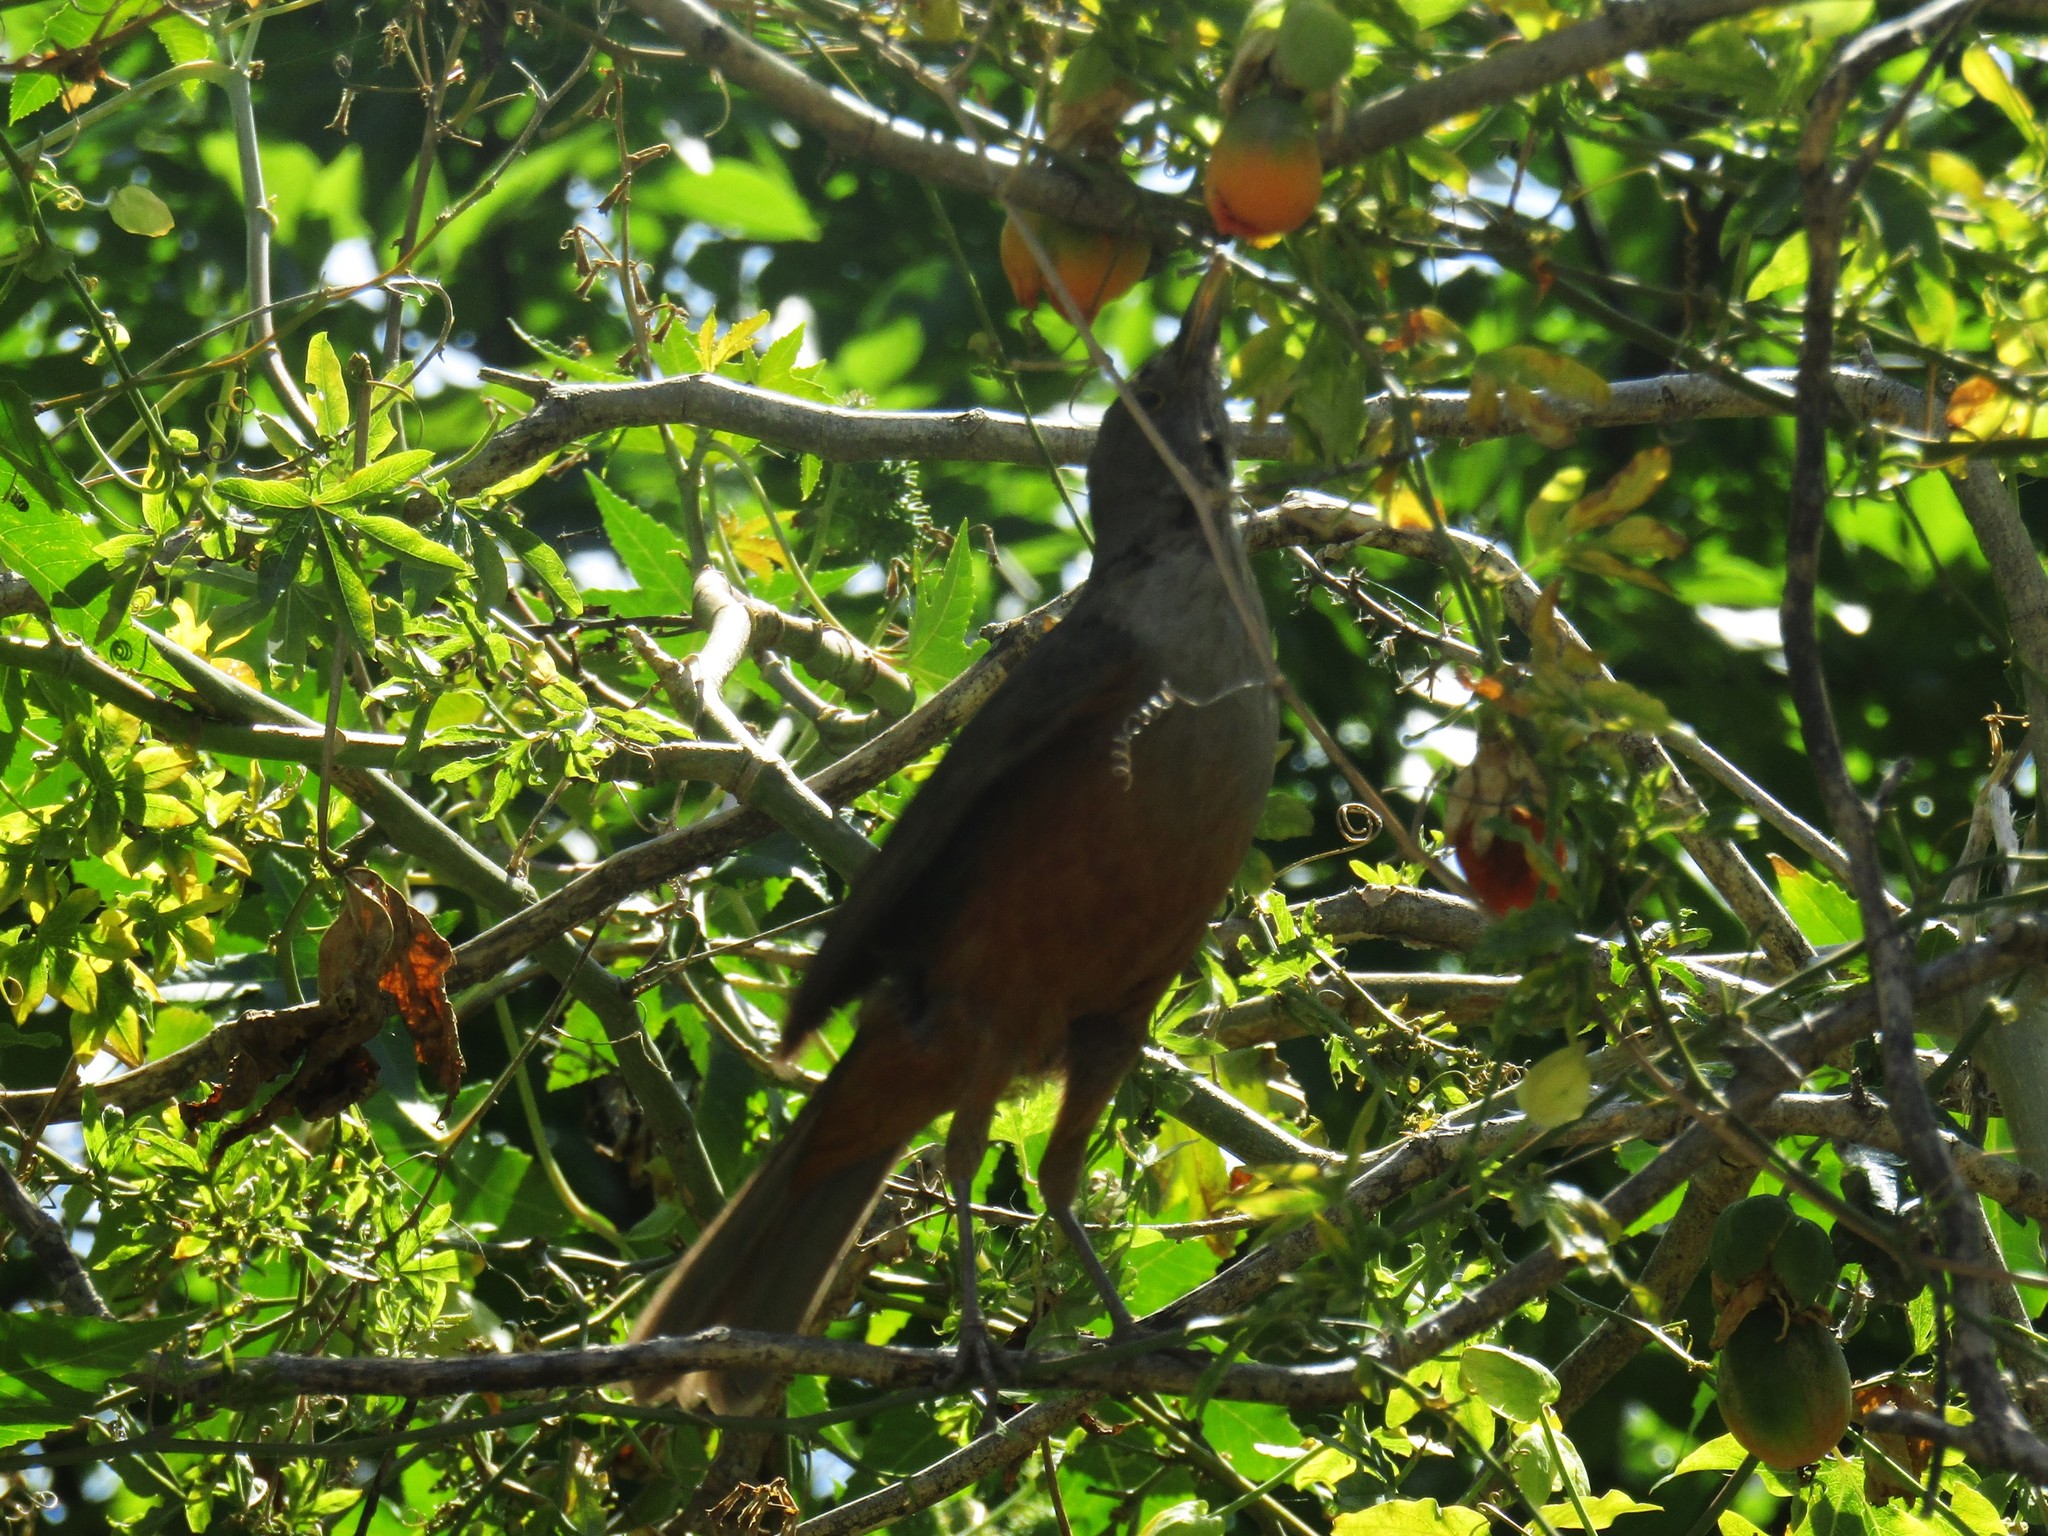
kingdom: Animalia
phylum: Chordata
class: Aves
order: Passeriformes
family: Turdidae
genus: Turdus
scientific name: Turdus rufiventris
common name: Rufous-bellied thrush
